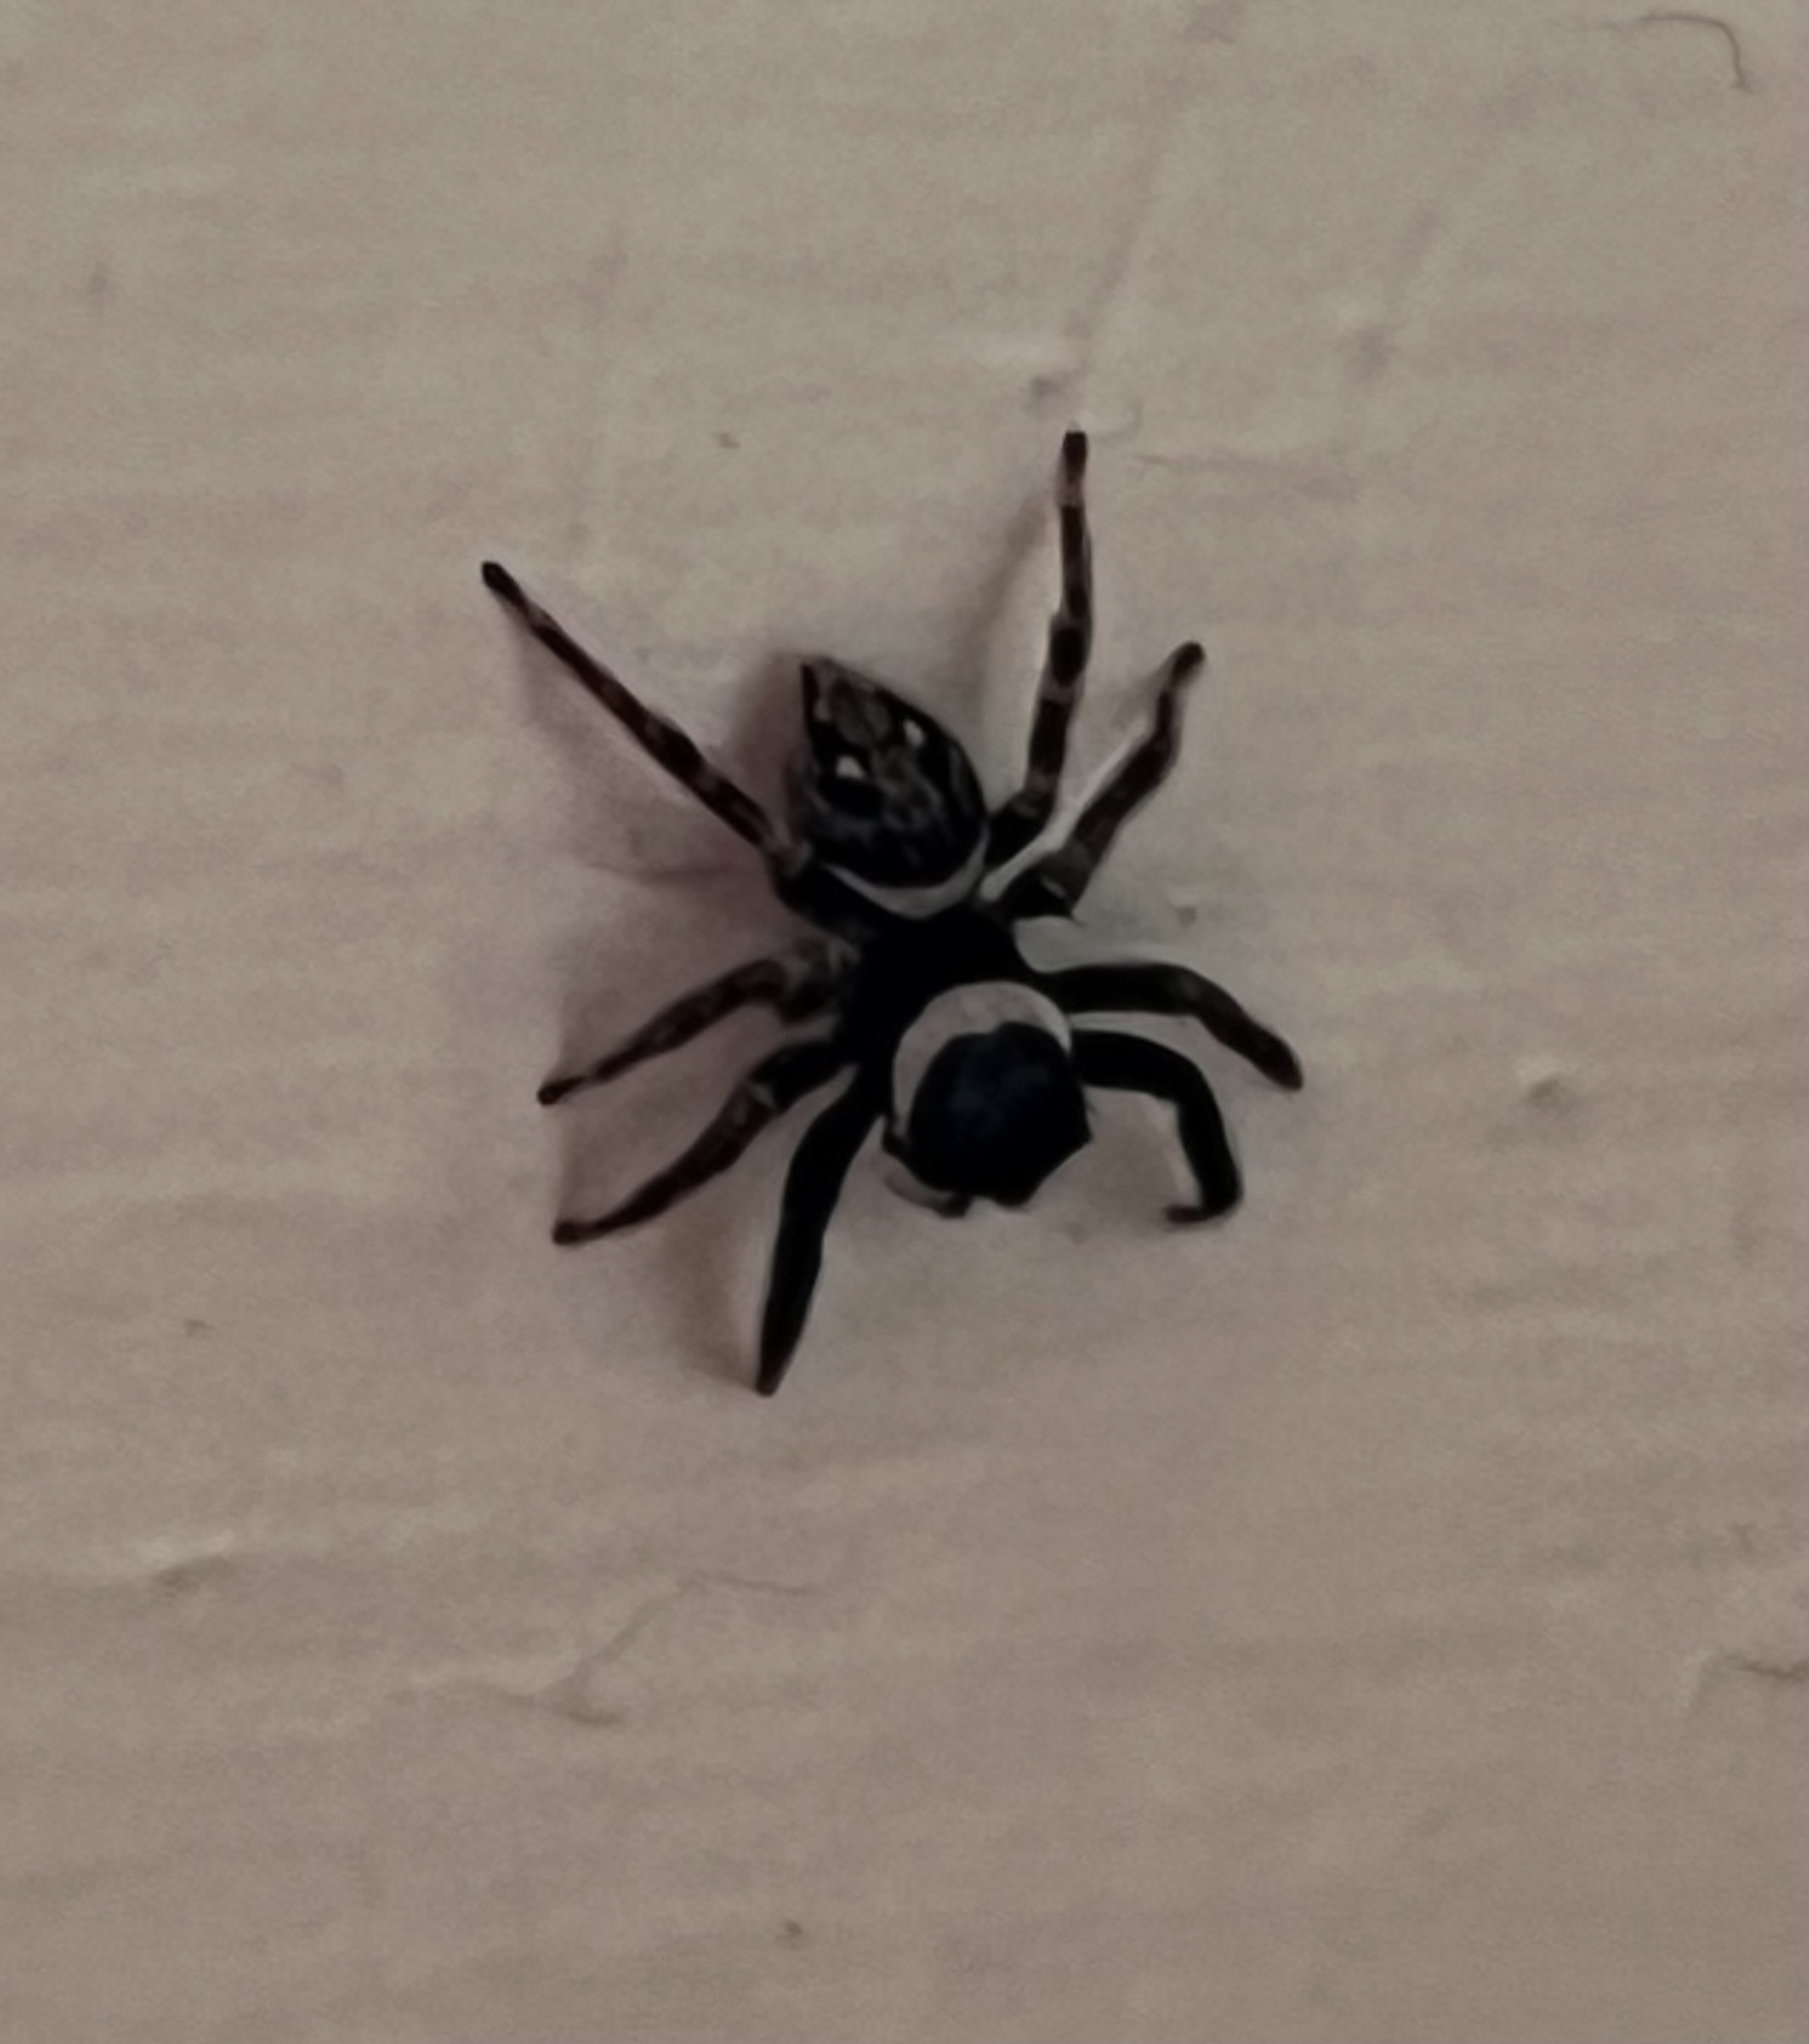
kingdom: Animalia
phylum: Arthropoda
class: Arachnida
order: Araneae
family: Salticidae
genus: Hasarius
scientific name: Hasarius adansoni
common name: Jumping spider
